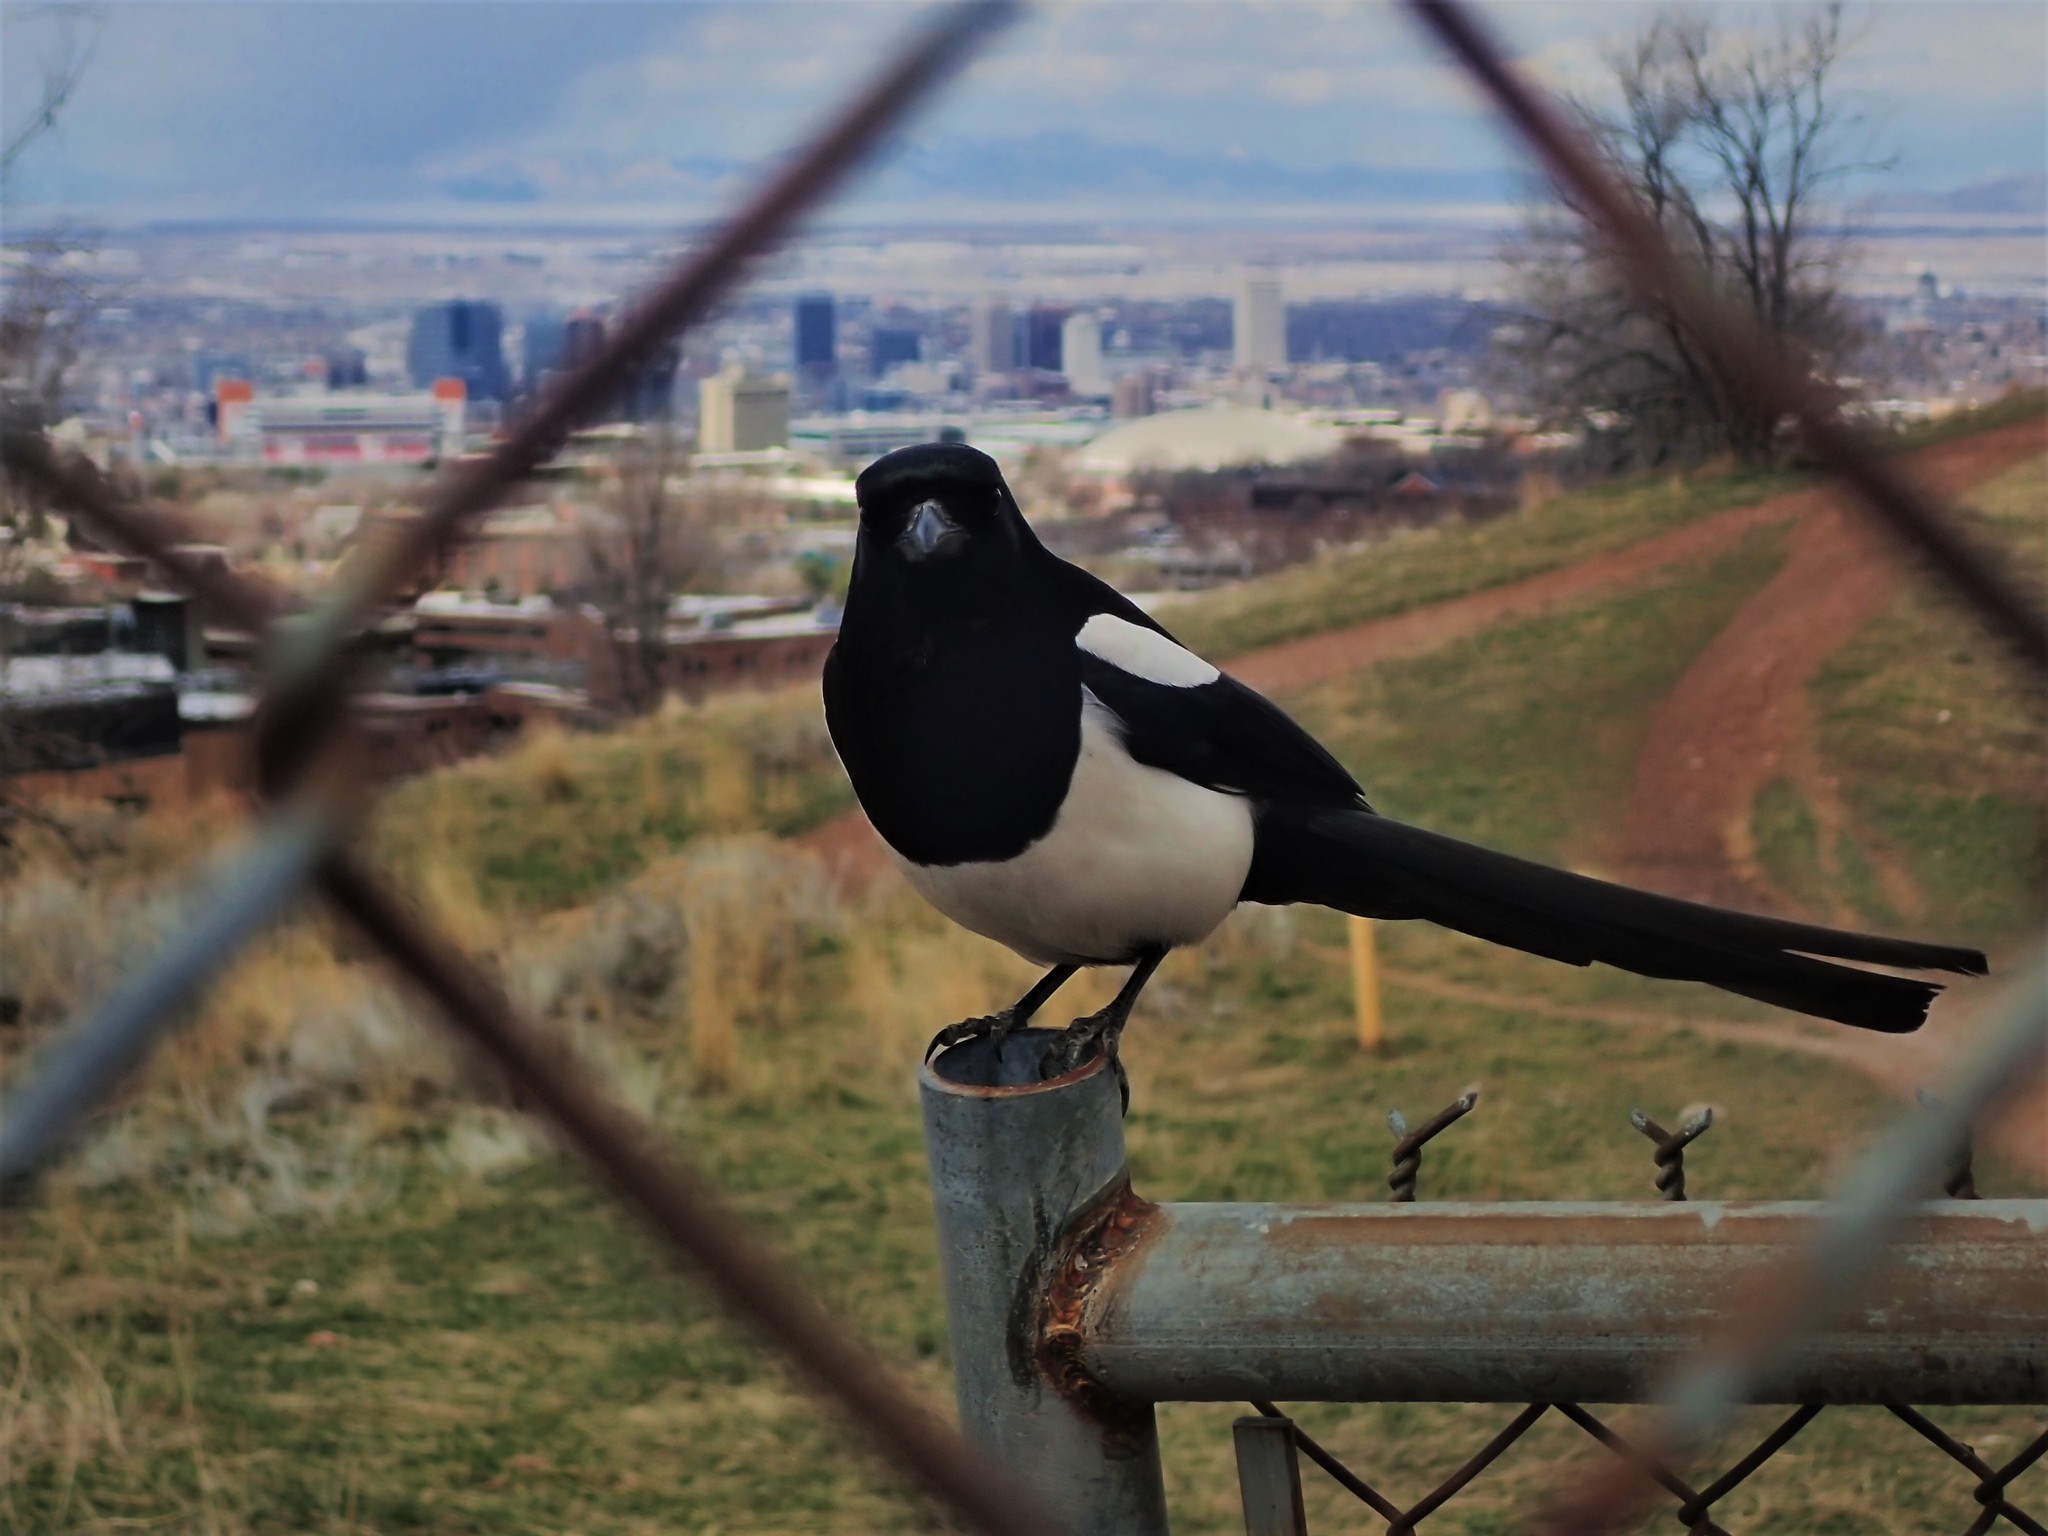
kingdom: Animalia
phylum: Chordata
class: Aves
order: Passeriformes
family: Corvidae
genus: Pica
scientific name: Pica hudsonia
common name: Black-billed magpie
